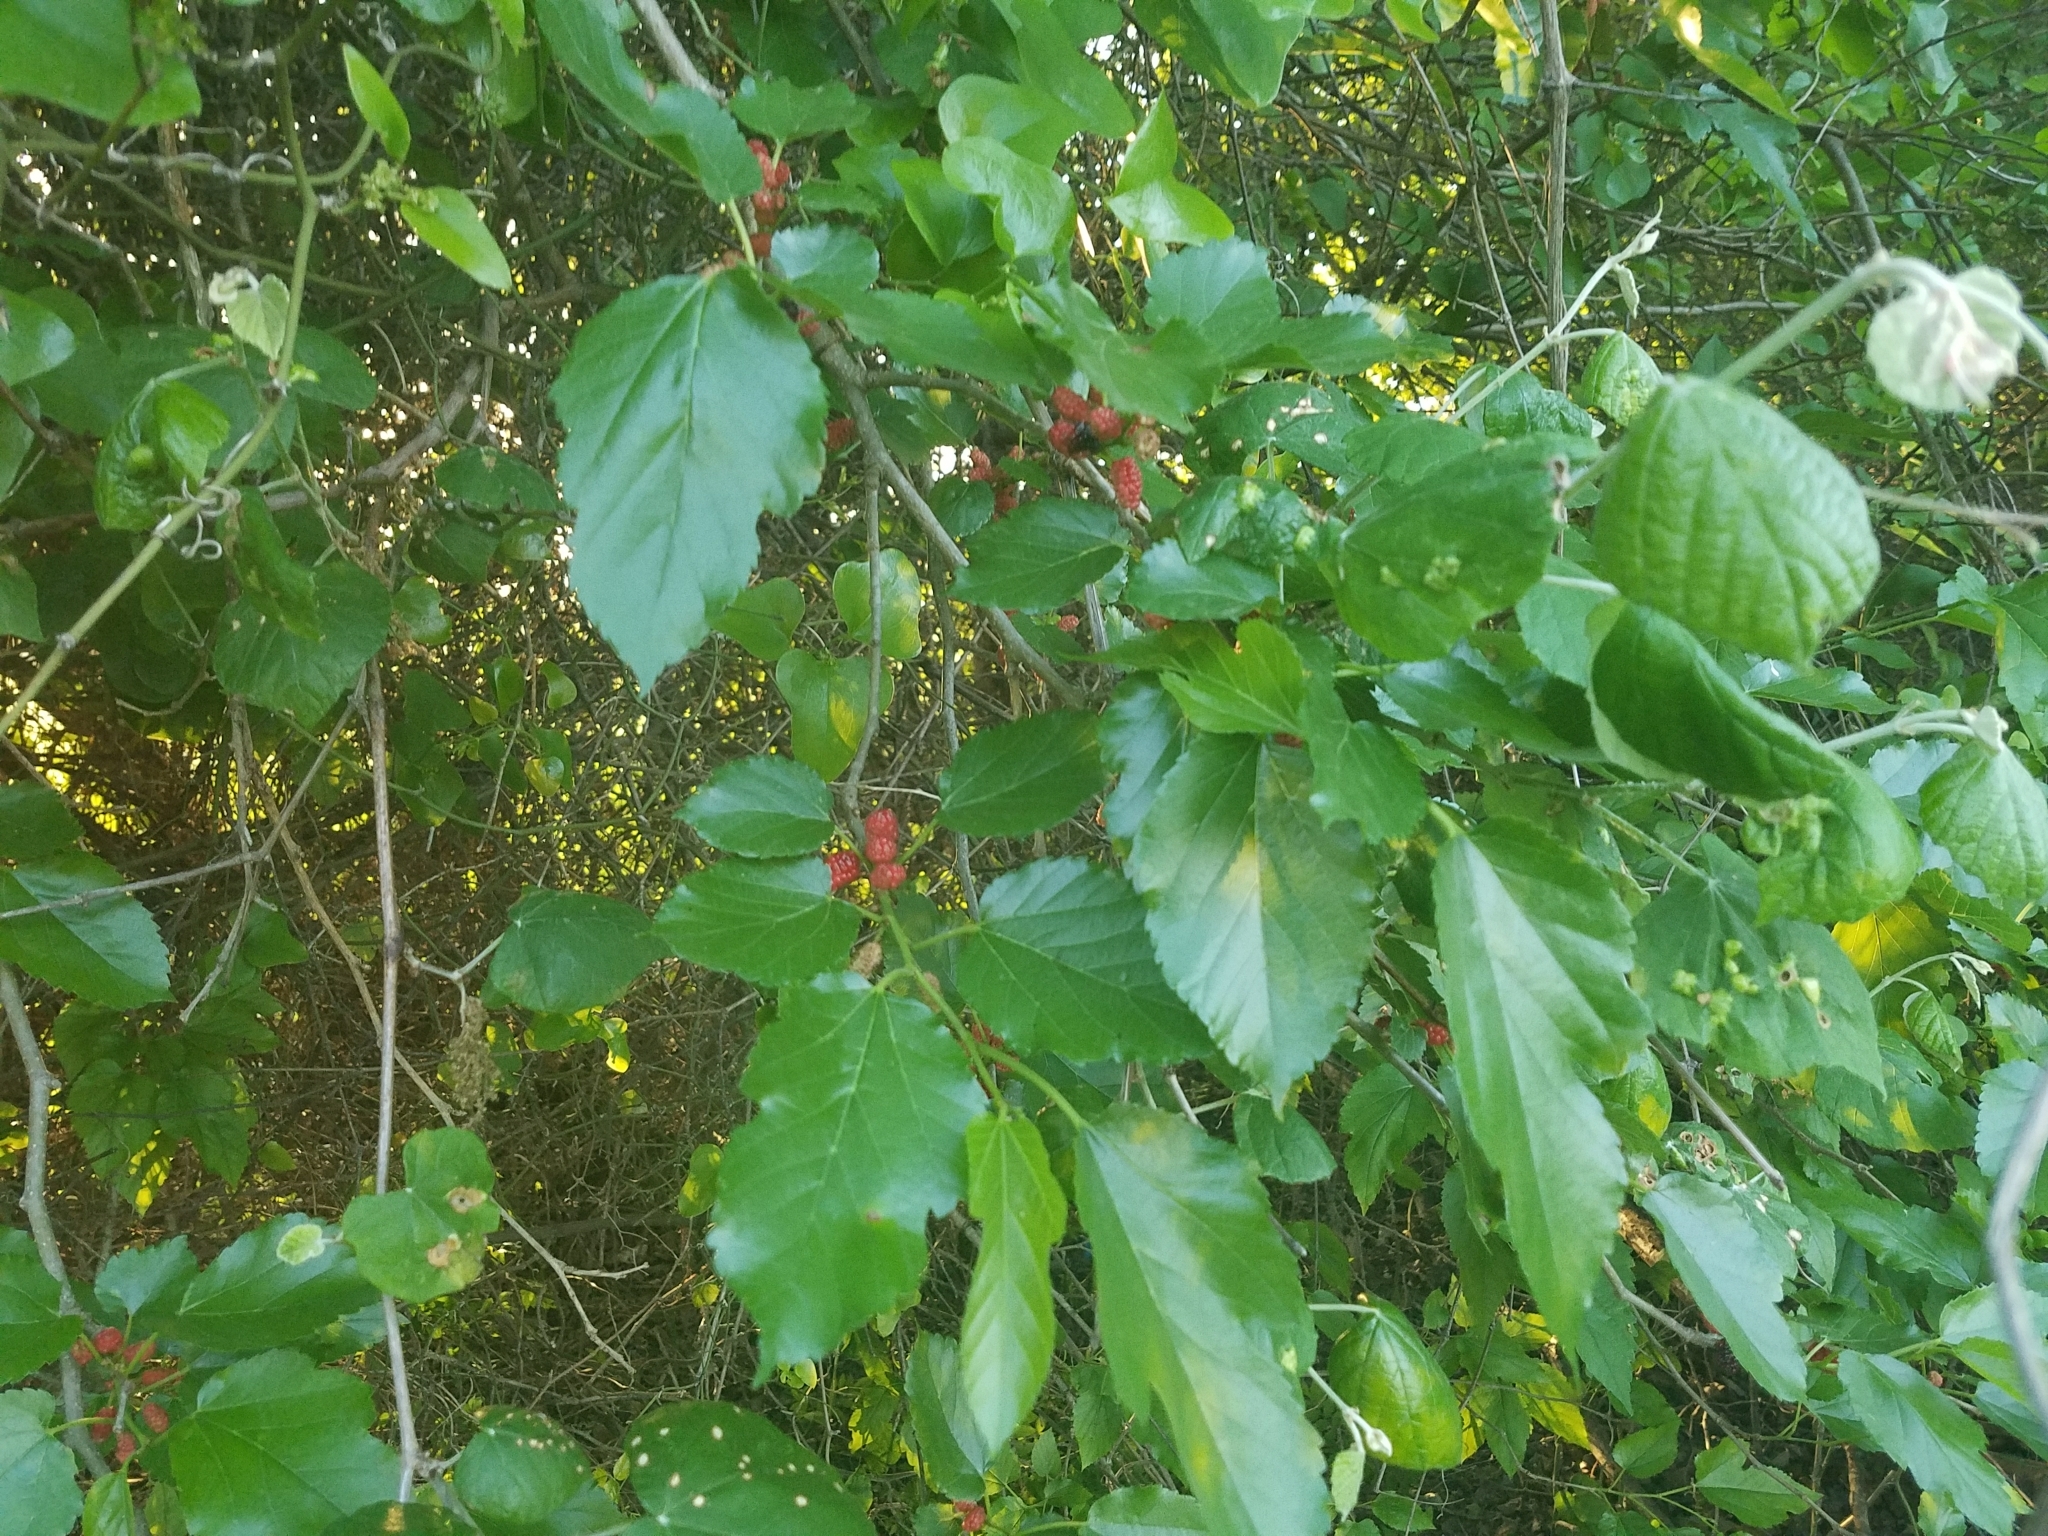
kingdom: Plantae
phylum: Tracheophyta
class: Magnoliopsida
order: Rosales
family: Moraceae
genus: Morus
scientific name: Morus rubra
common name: Red mulberry
